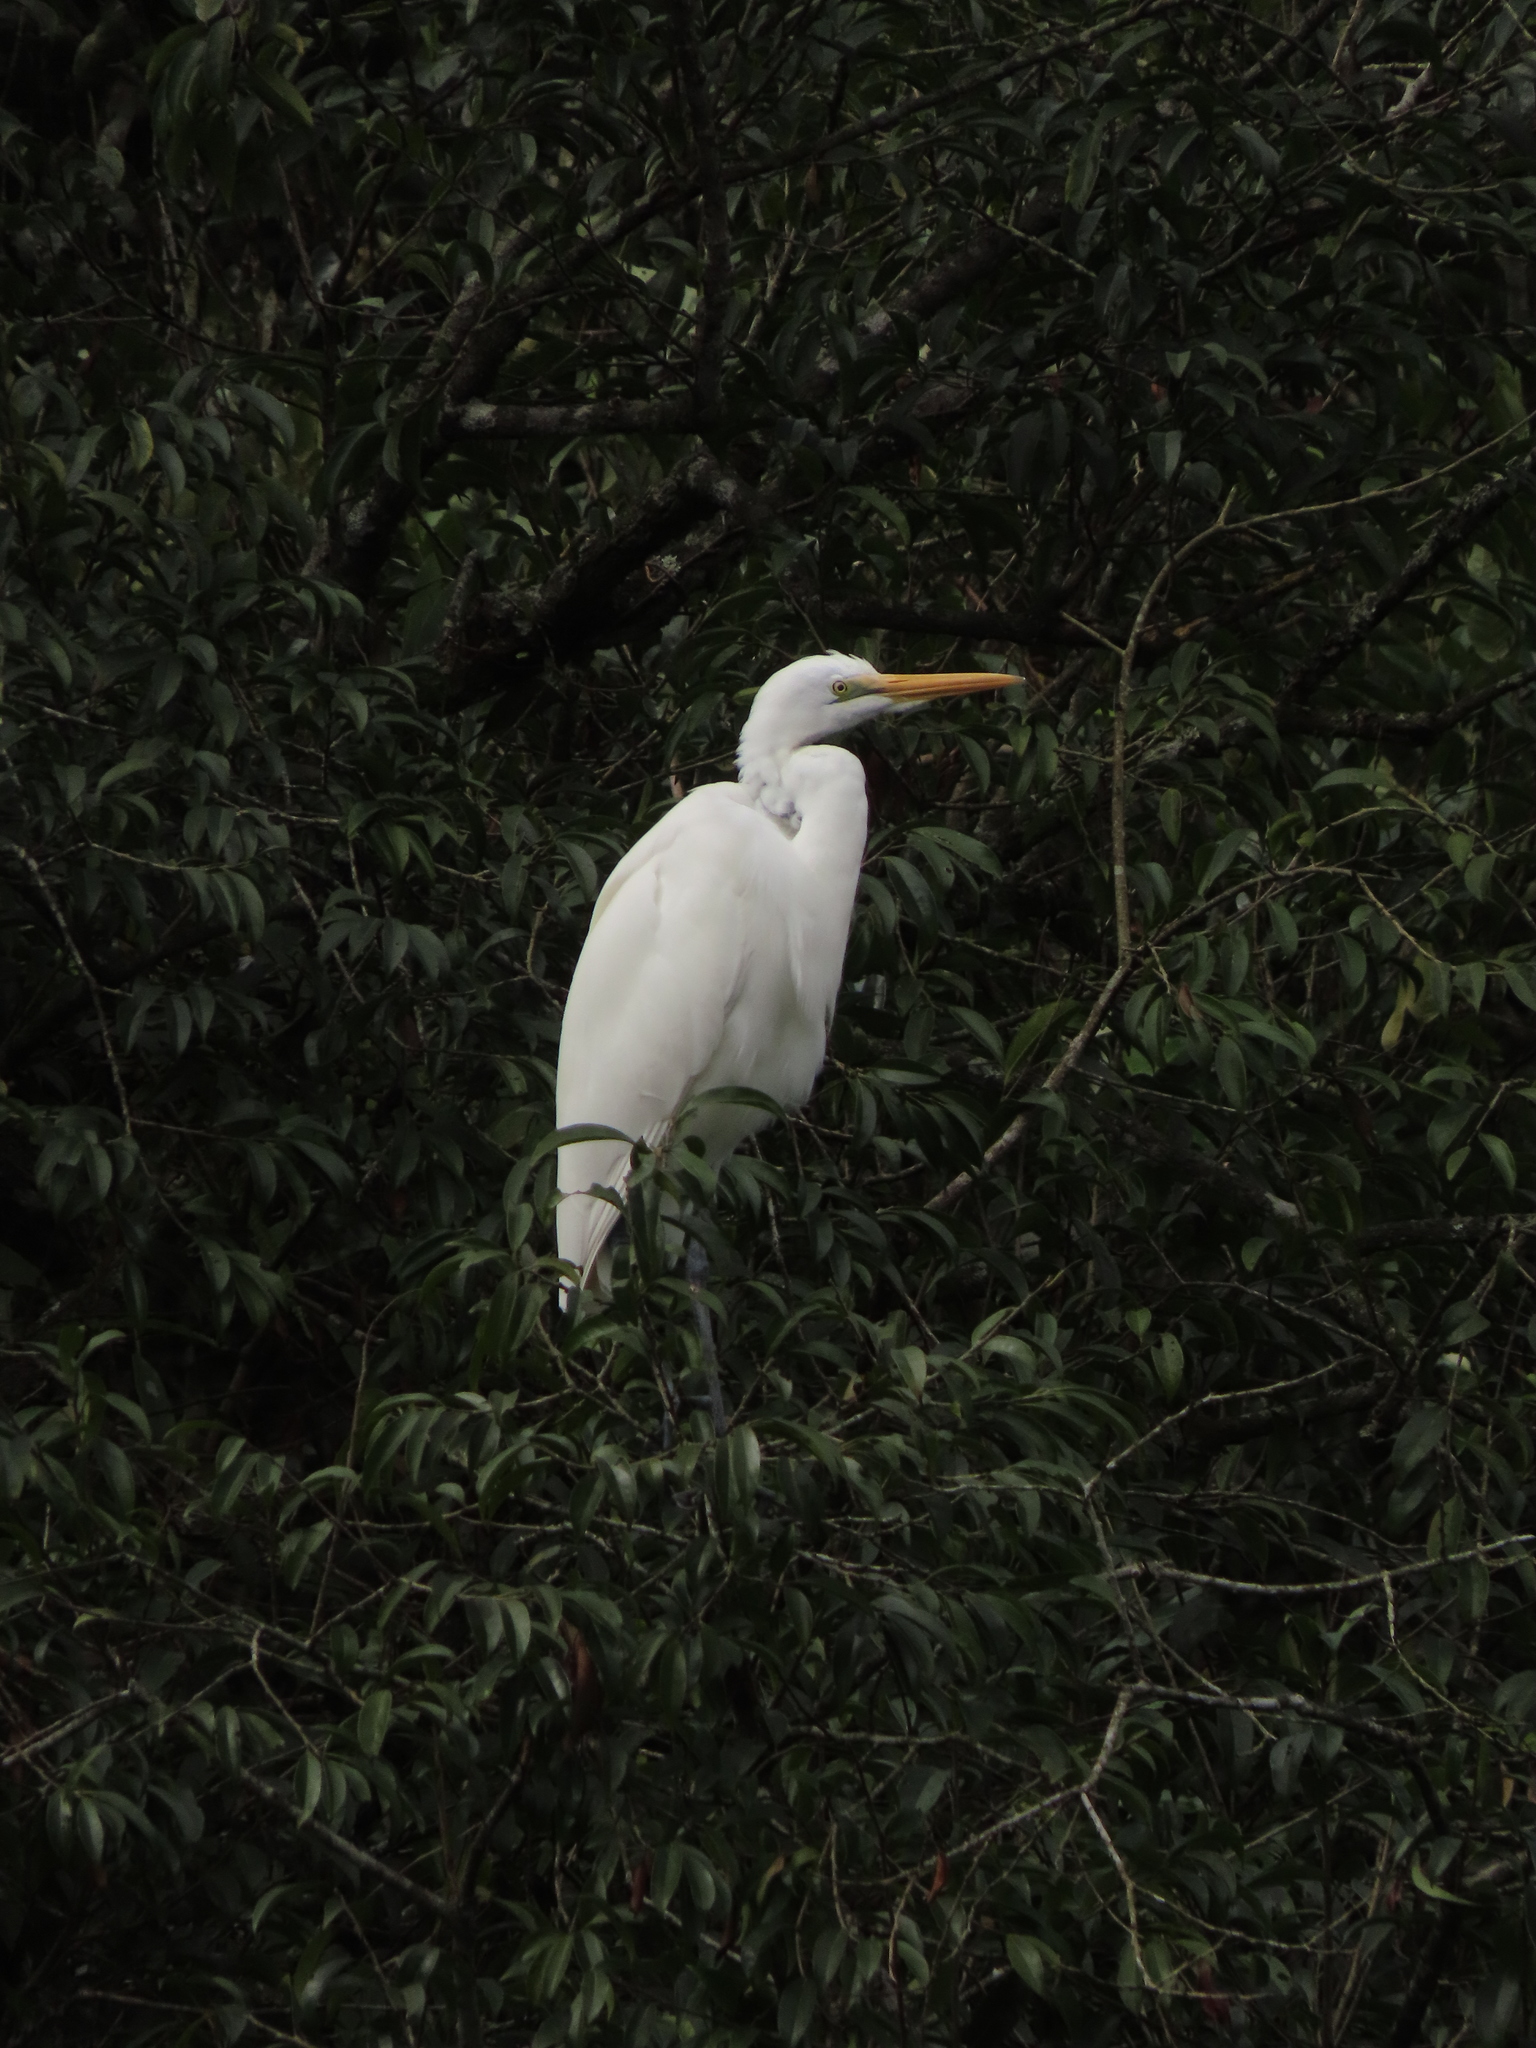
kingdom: Animalia
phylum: Chordata
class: Aves
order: Pelecaniformes
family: Ardeidae
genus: Ardea
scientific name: Ardea alba
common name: Great egret
